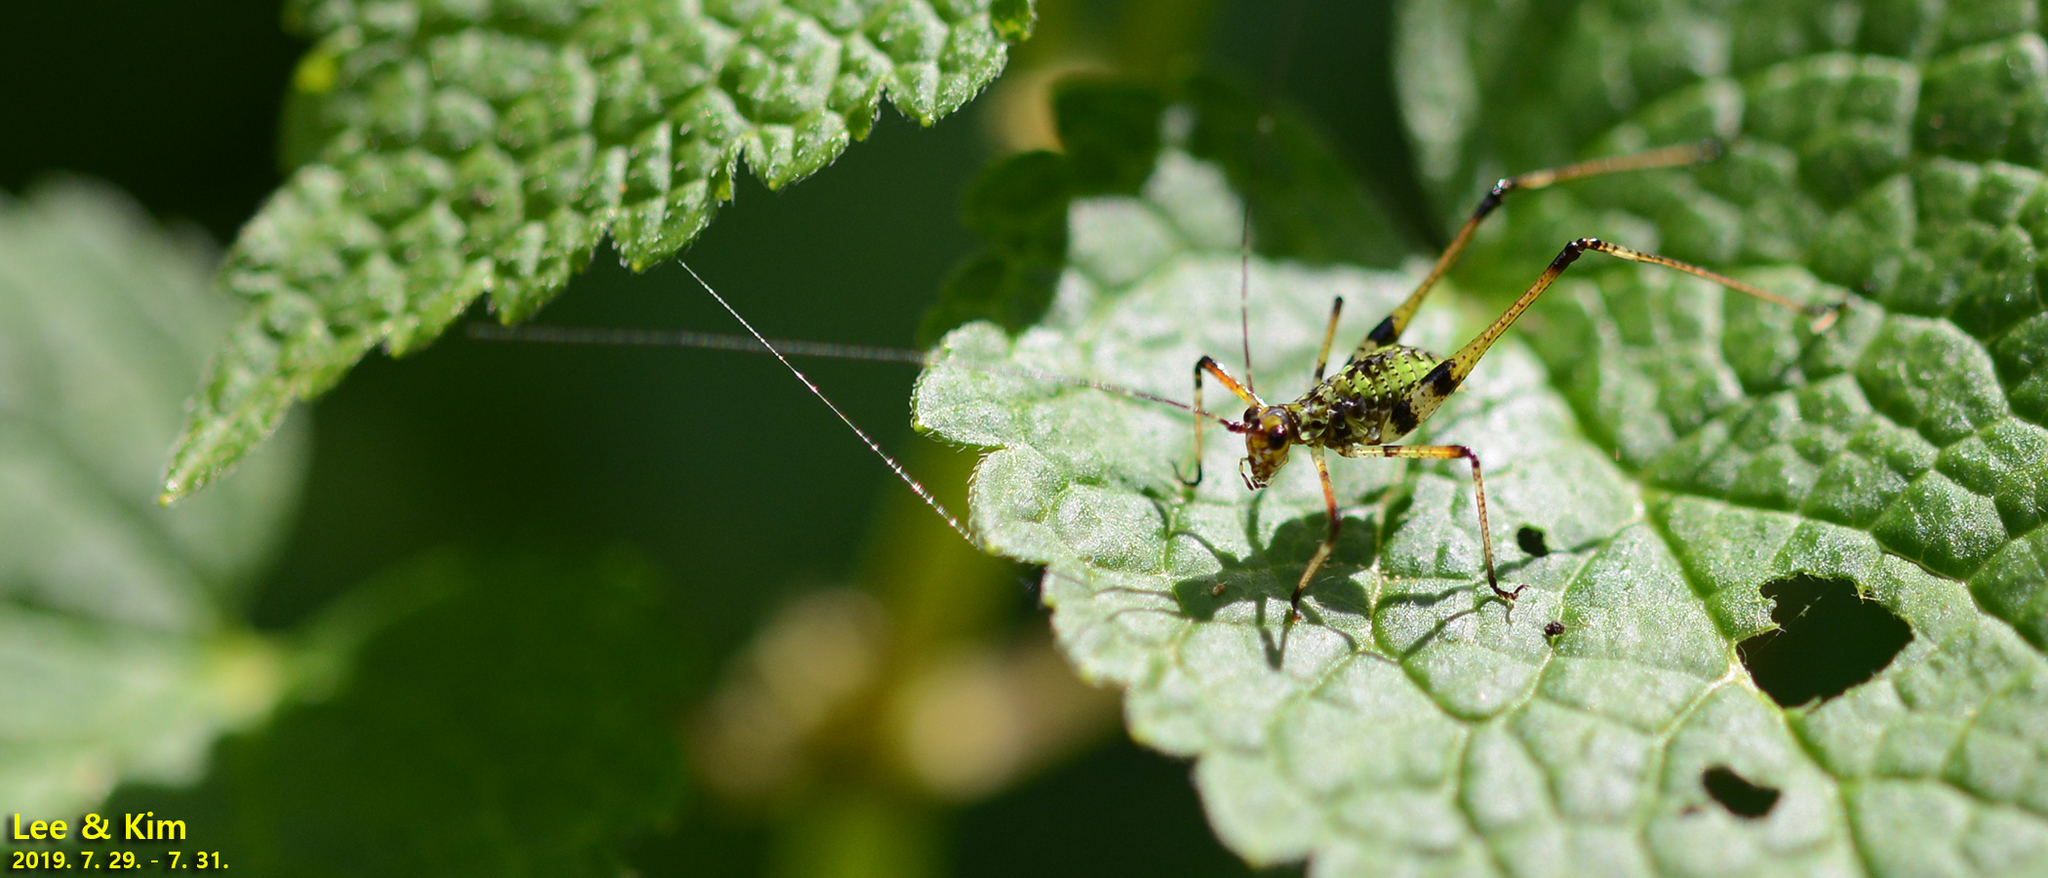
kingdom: Animalia
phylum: Arthropoda
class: Insecta
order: Orthoptera
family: Tettigoniidae
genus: Phaneroptera
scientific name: Phaneroptera nigroantennata
